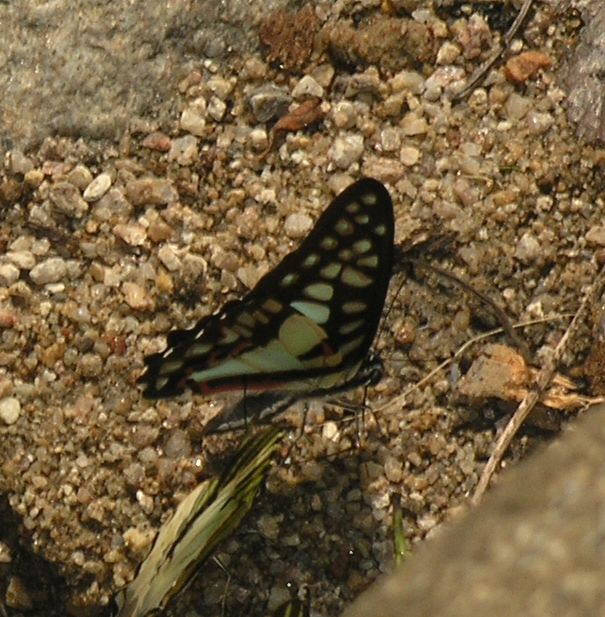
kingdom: Animalia
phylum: Arthropoda
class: Insecta
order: Lepidoptera
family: Papilionidae
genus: Graphium
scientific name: Graphium doson
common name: Common jay
